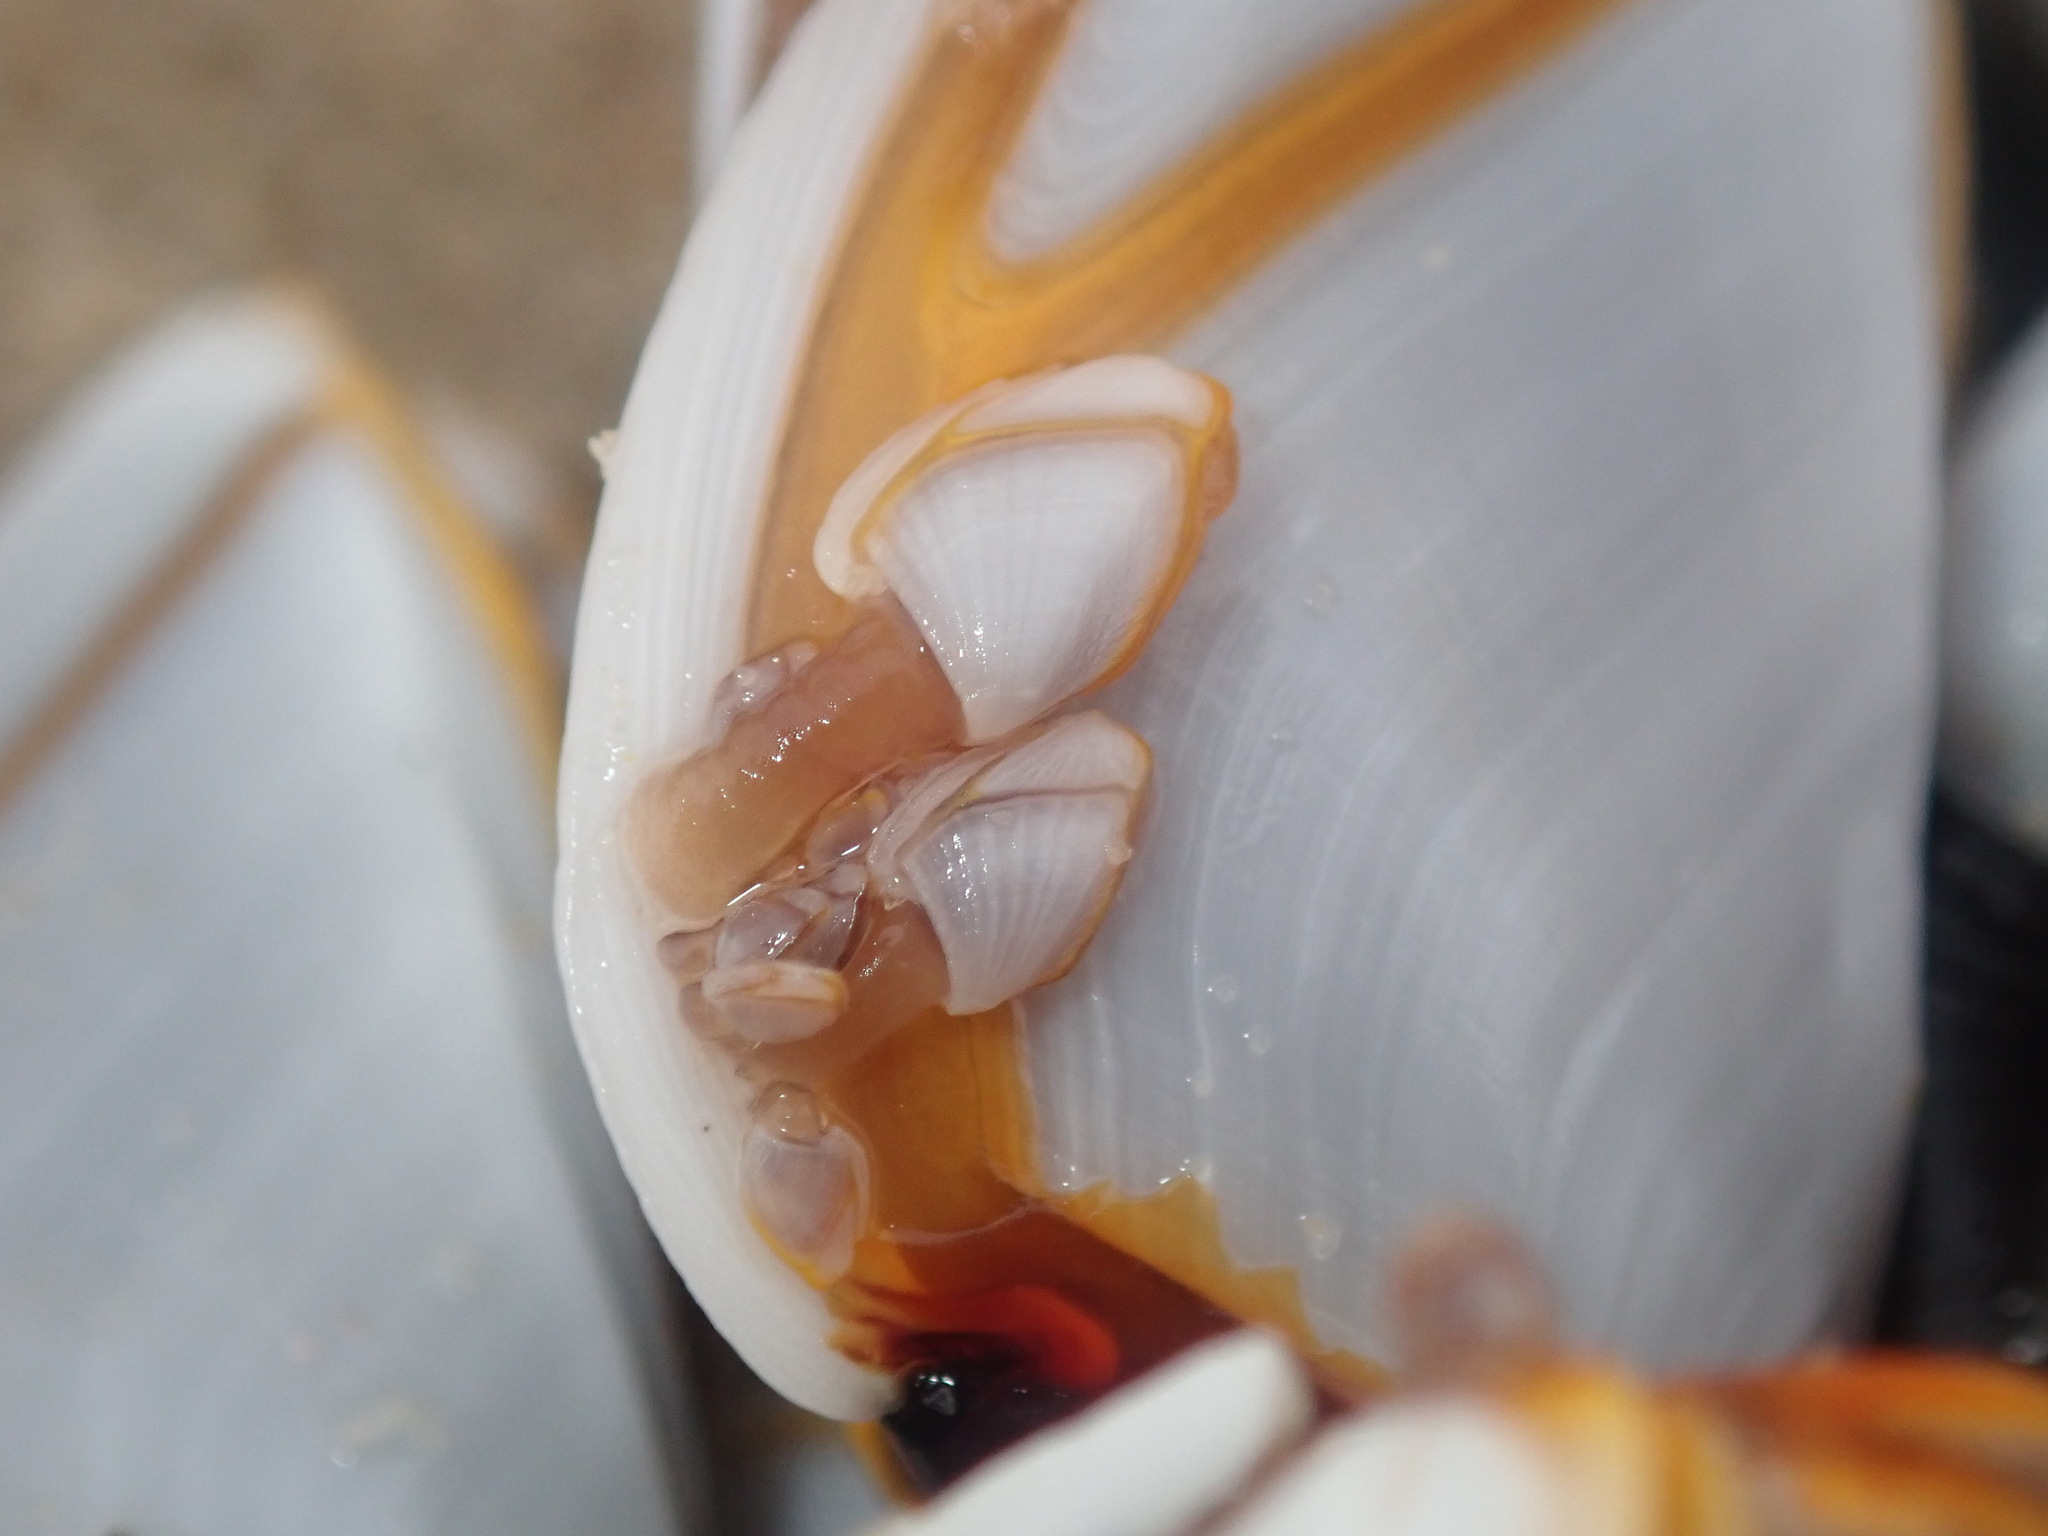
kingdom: Animalia
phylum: Arthropoda
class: Maxillopoda
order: Pedunculata
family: Lepadidae
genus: Lepas
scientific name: Lepas anserifera
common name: Goose barnacle
